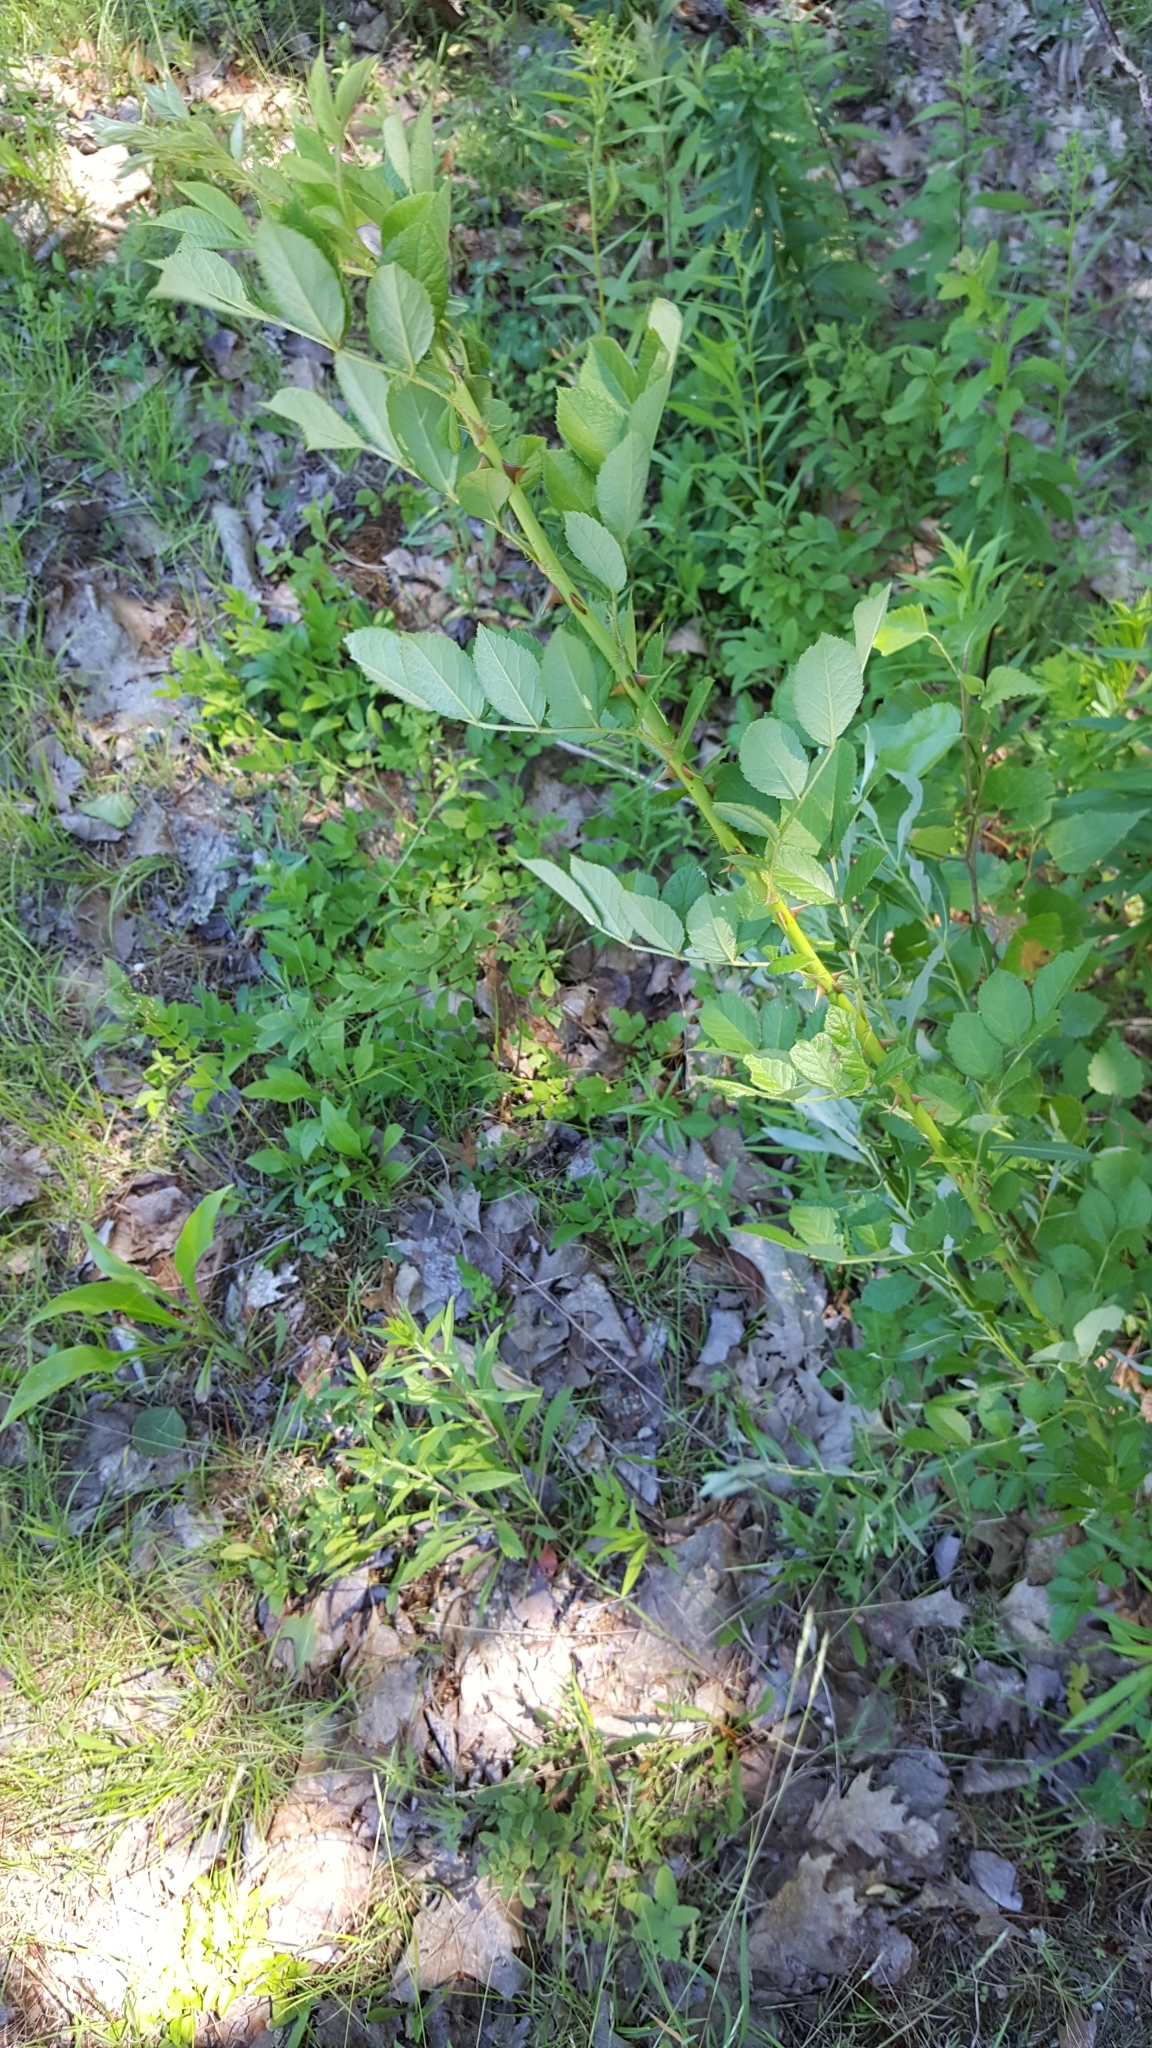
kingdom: Plantae
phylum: Tracheophyta
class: Magnoliopsida
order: Rosales
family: Rosaceae
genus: Rosa
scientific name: Rosa multiflora
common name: Multiflora rose
